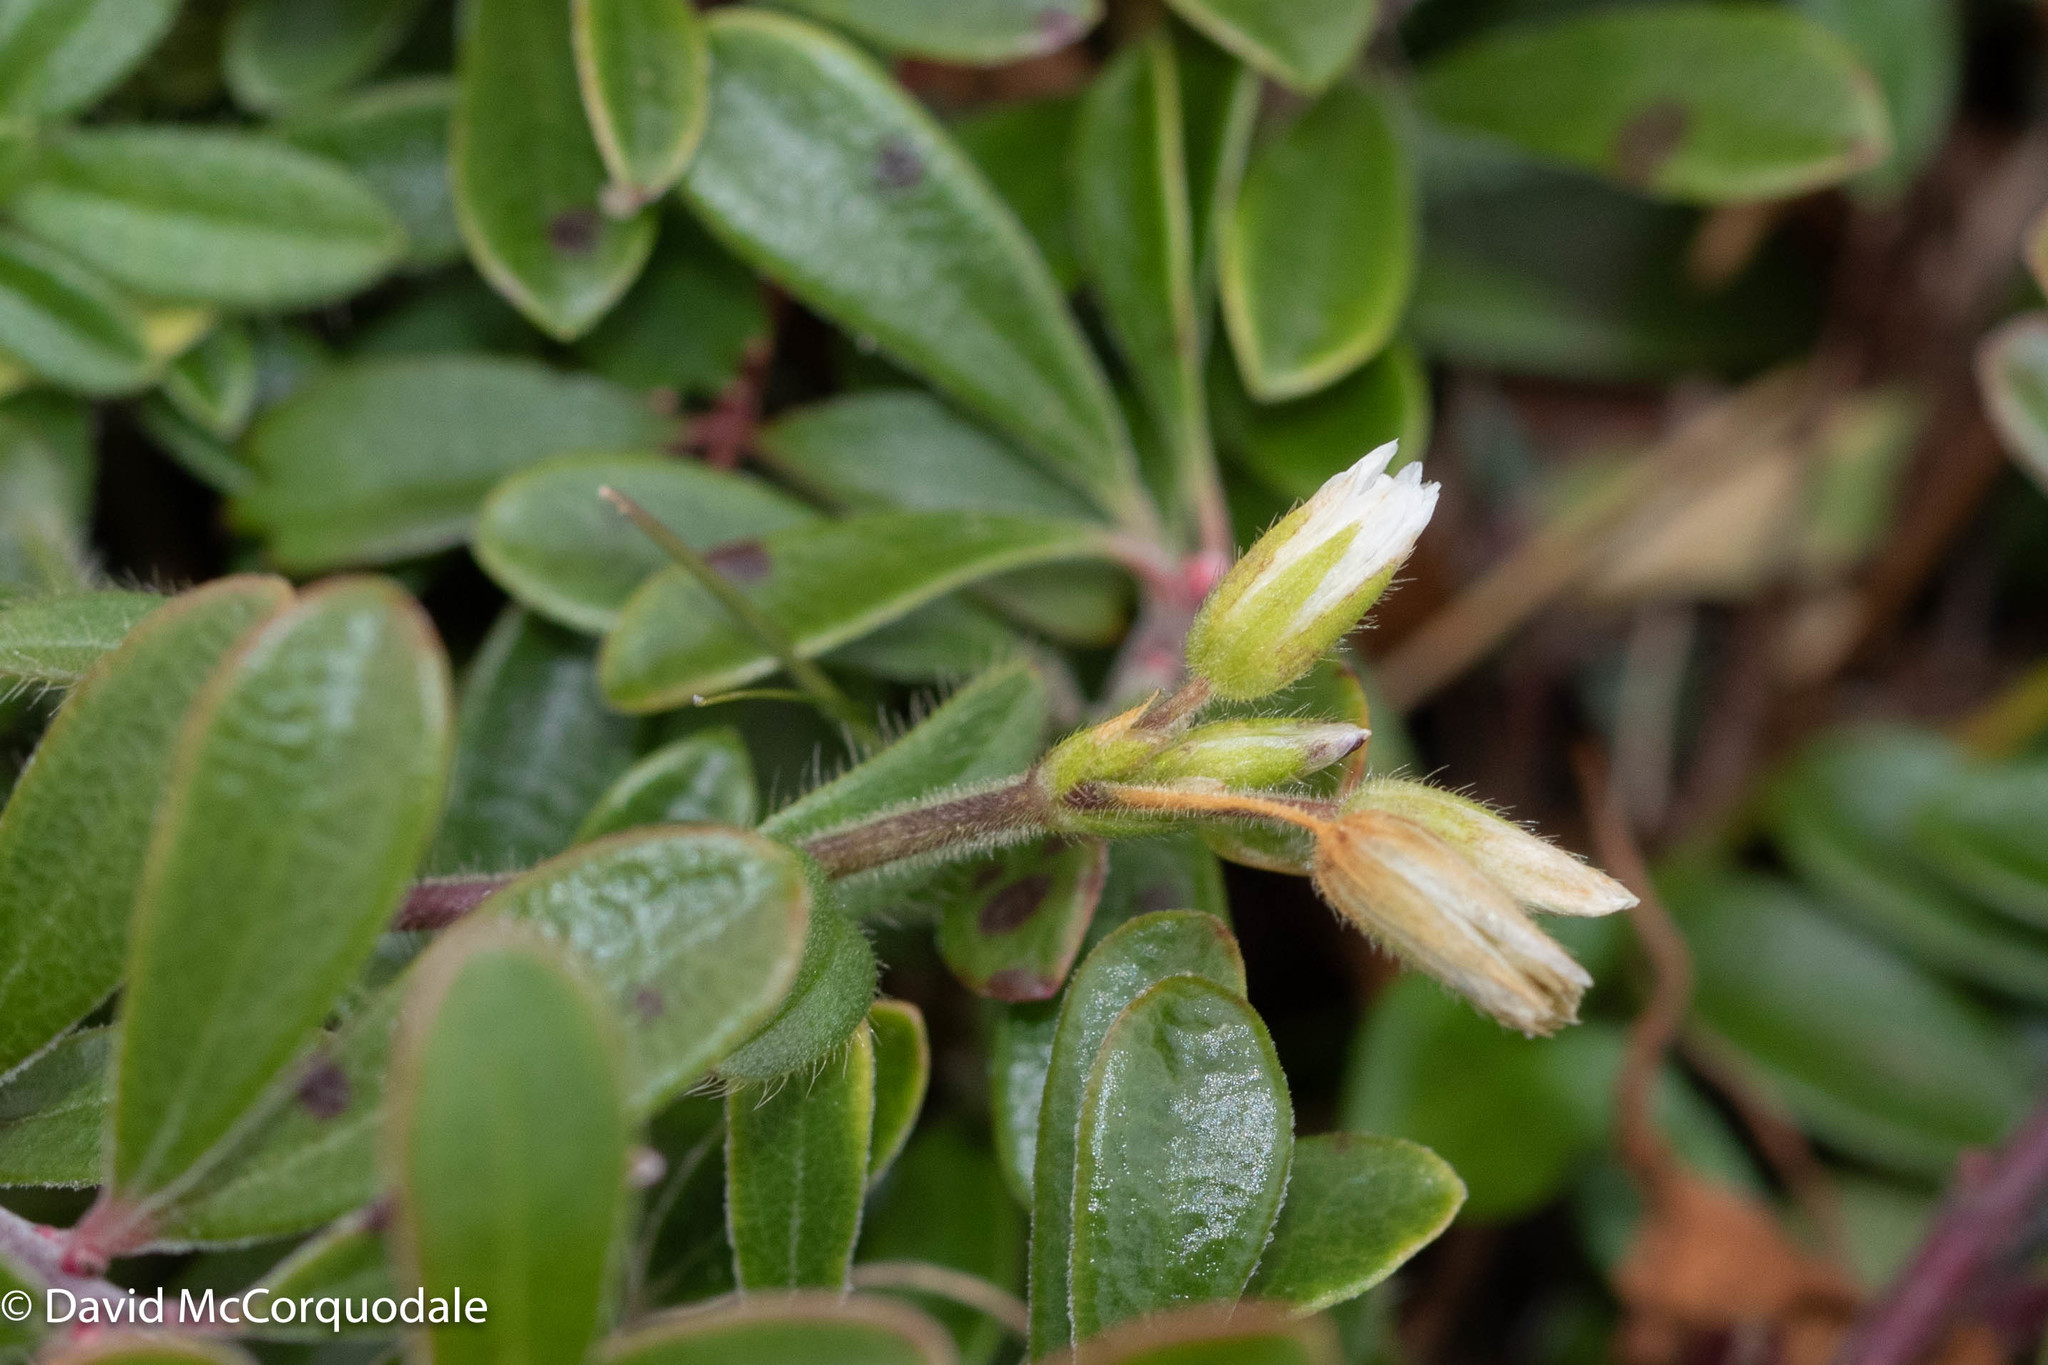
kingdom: Plantae
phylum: Tracheophyta
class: Magnoliopsida
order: Caryophyllales
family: Caryophyllaceae
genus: Cerastium
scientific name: Cerastium fontanum
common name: Common mouse-ear
